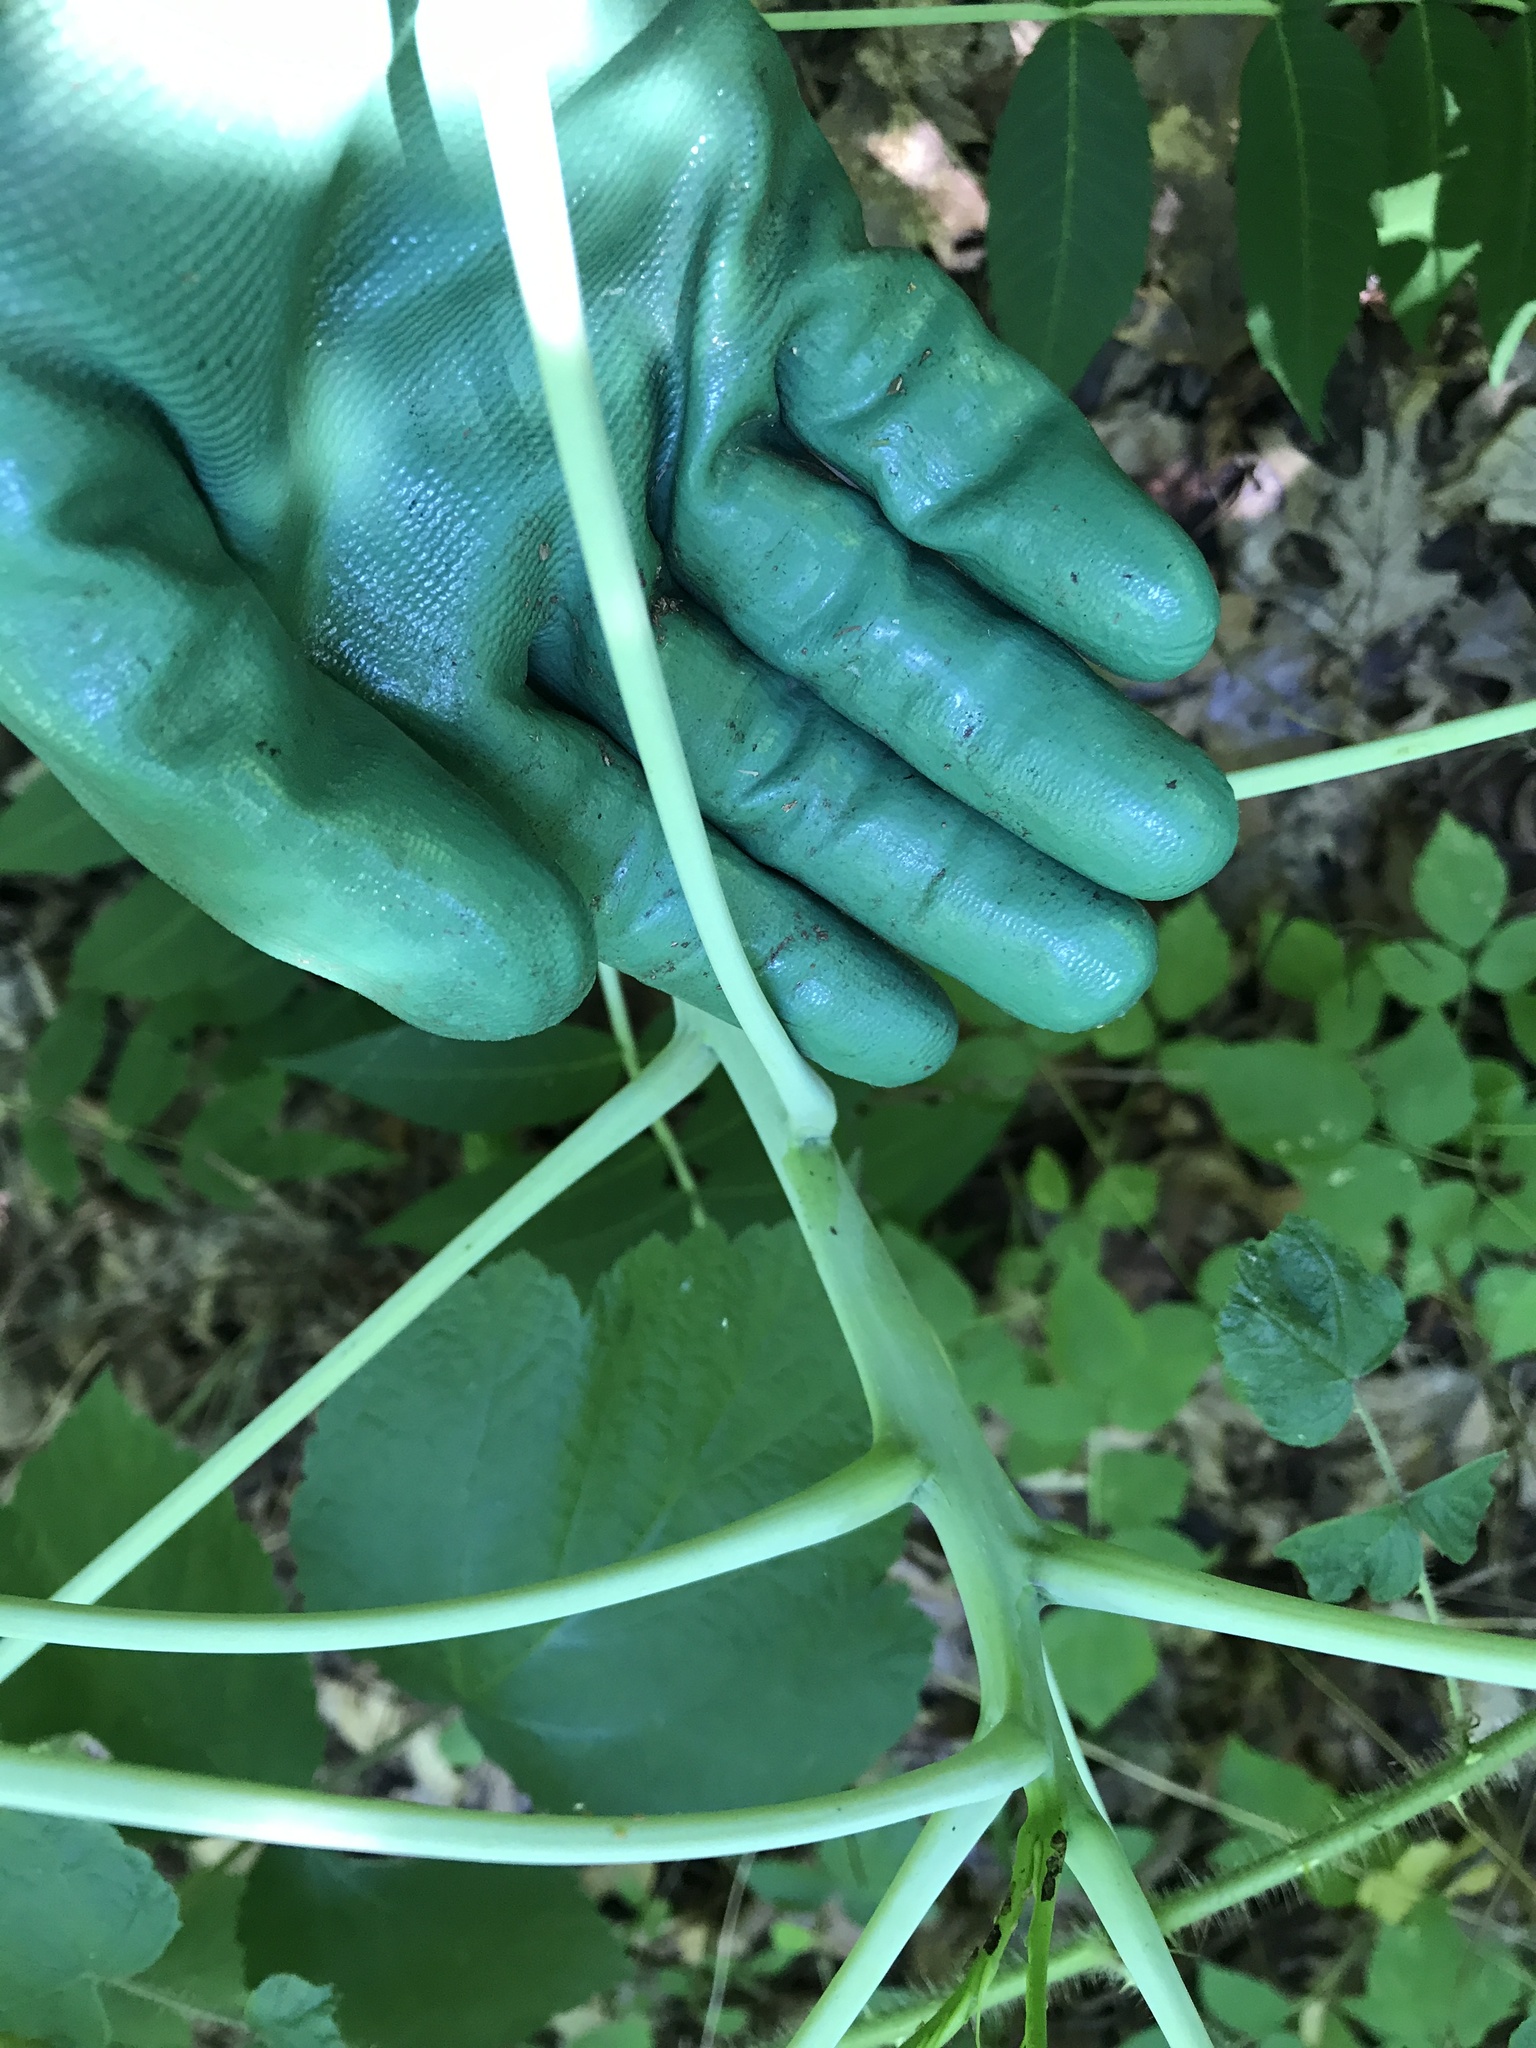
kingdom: Plantae
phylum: Tracheophyta
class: Magnoliopsida
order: Sapindales
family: Anacardiaceae
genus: Rhus
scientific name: Rhus glabra
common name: Scarlet sumac
